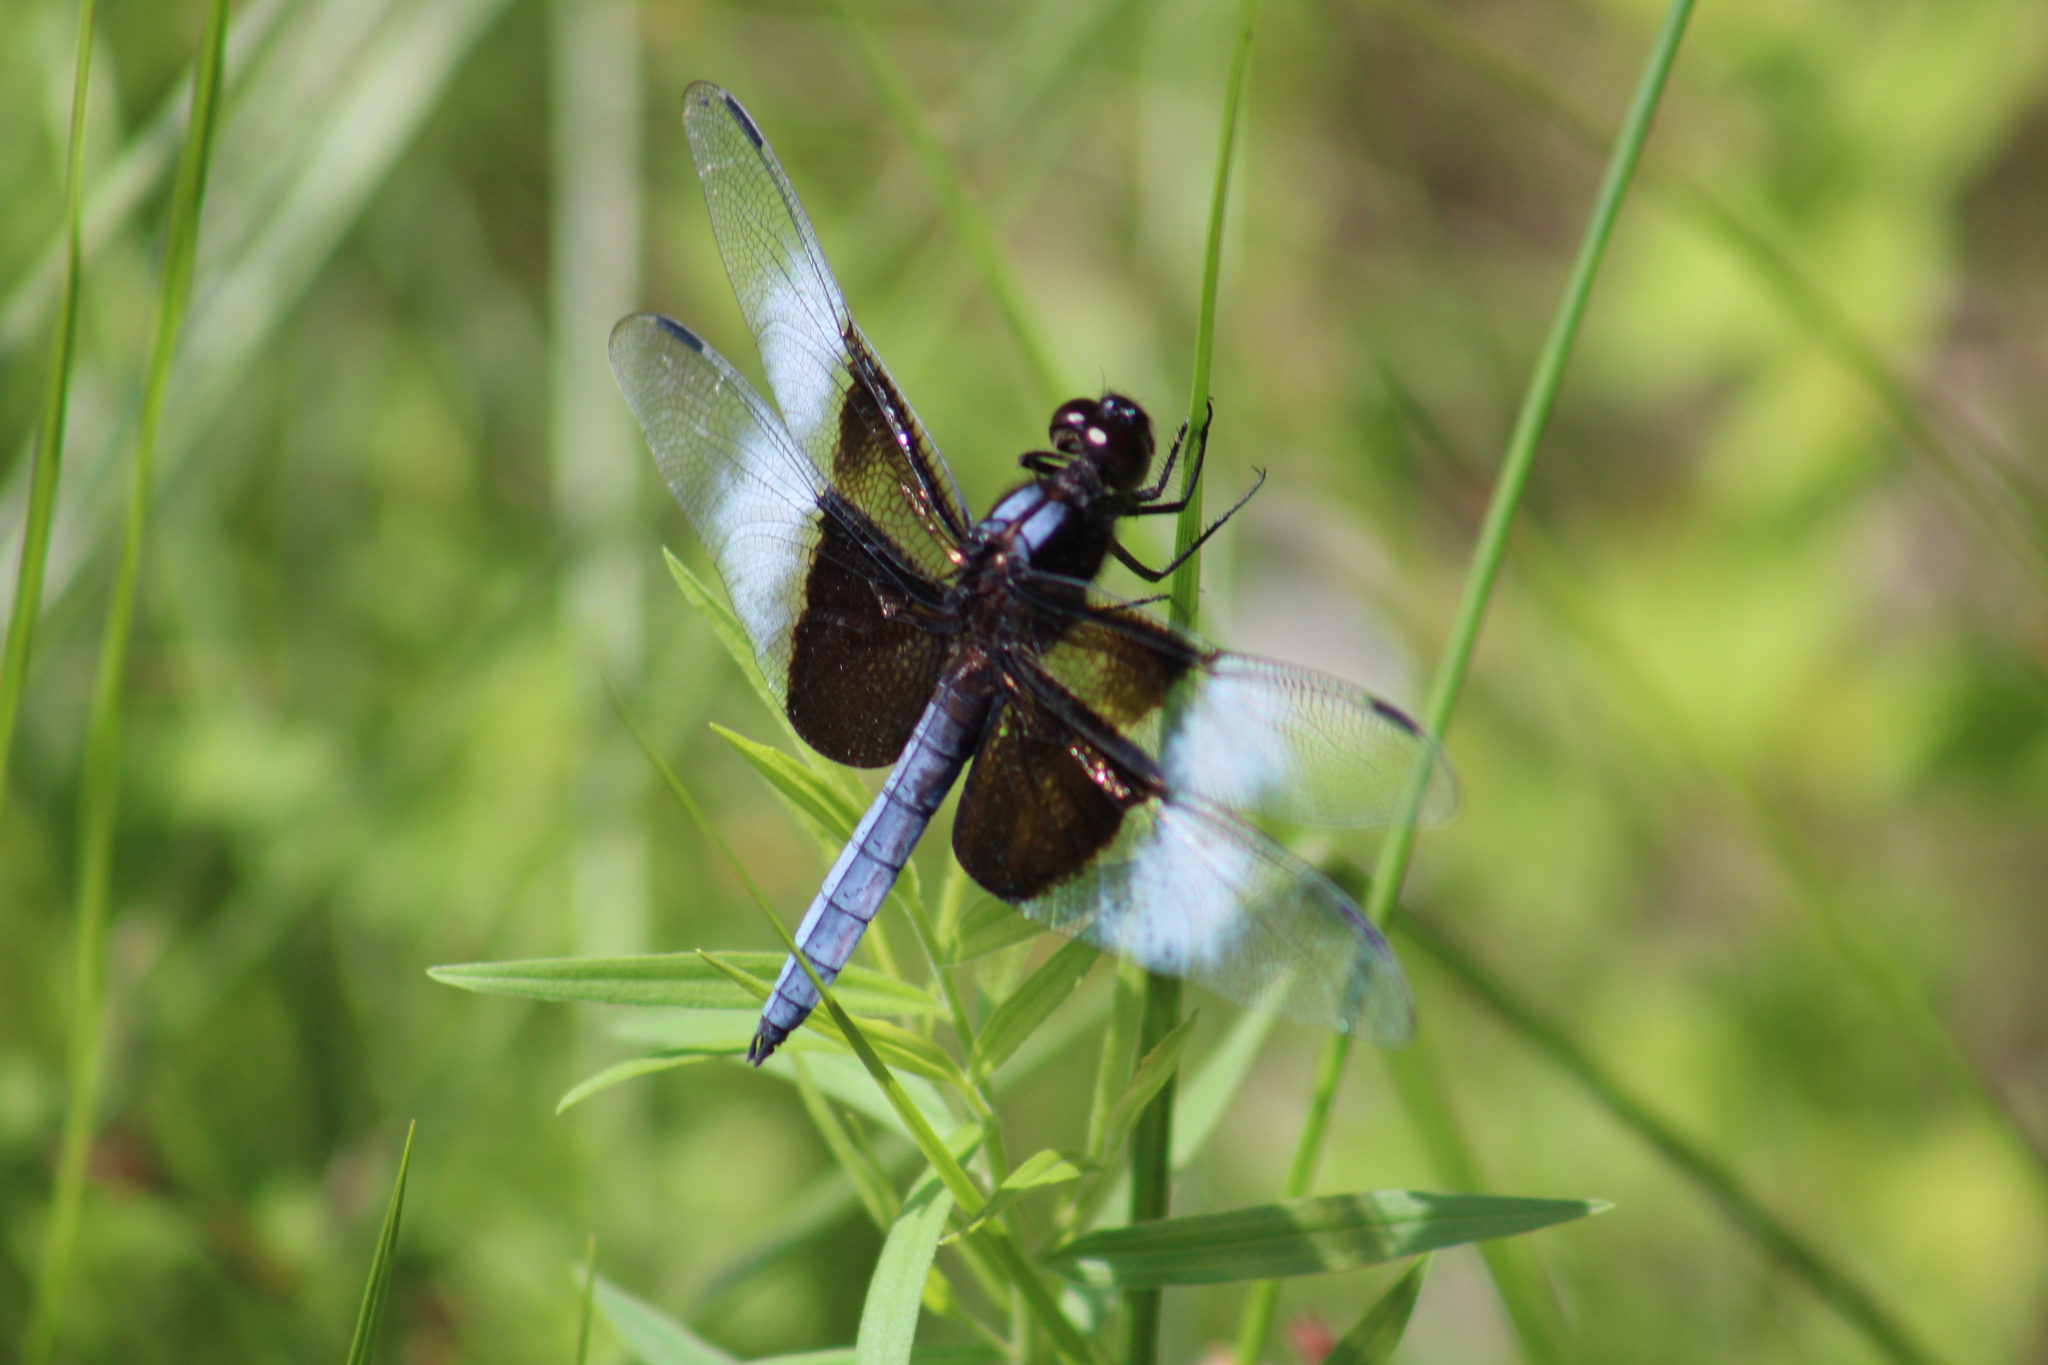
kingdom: Animalia
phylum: Arthropoda
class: Insecta
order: Odonata
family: Libellulidae
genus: Libellula
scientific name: Libellula luctuosa
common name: Widow skimmer
